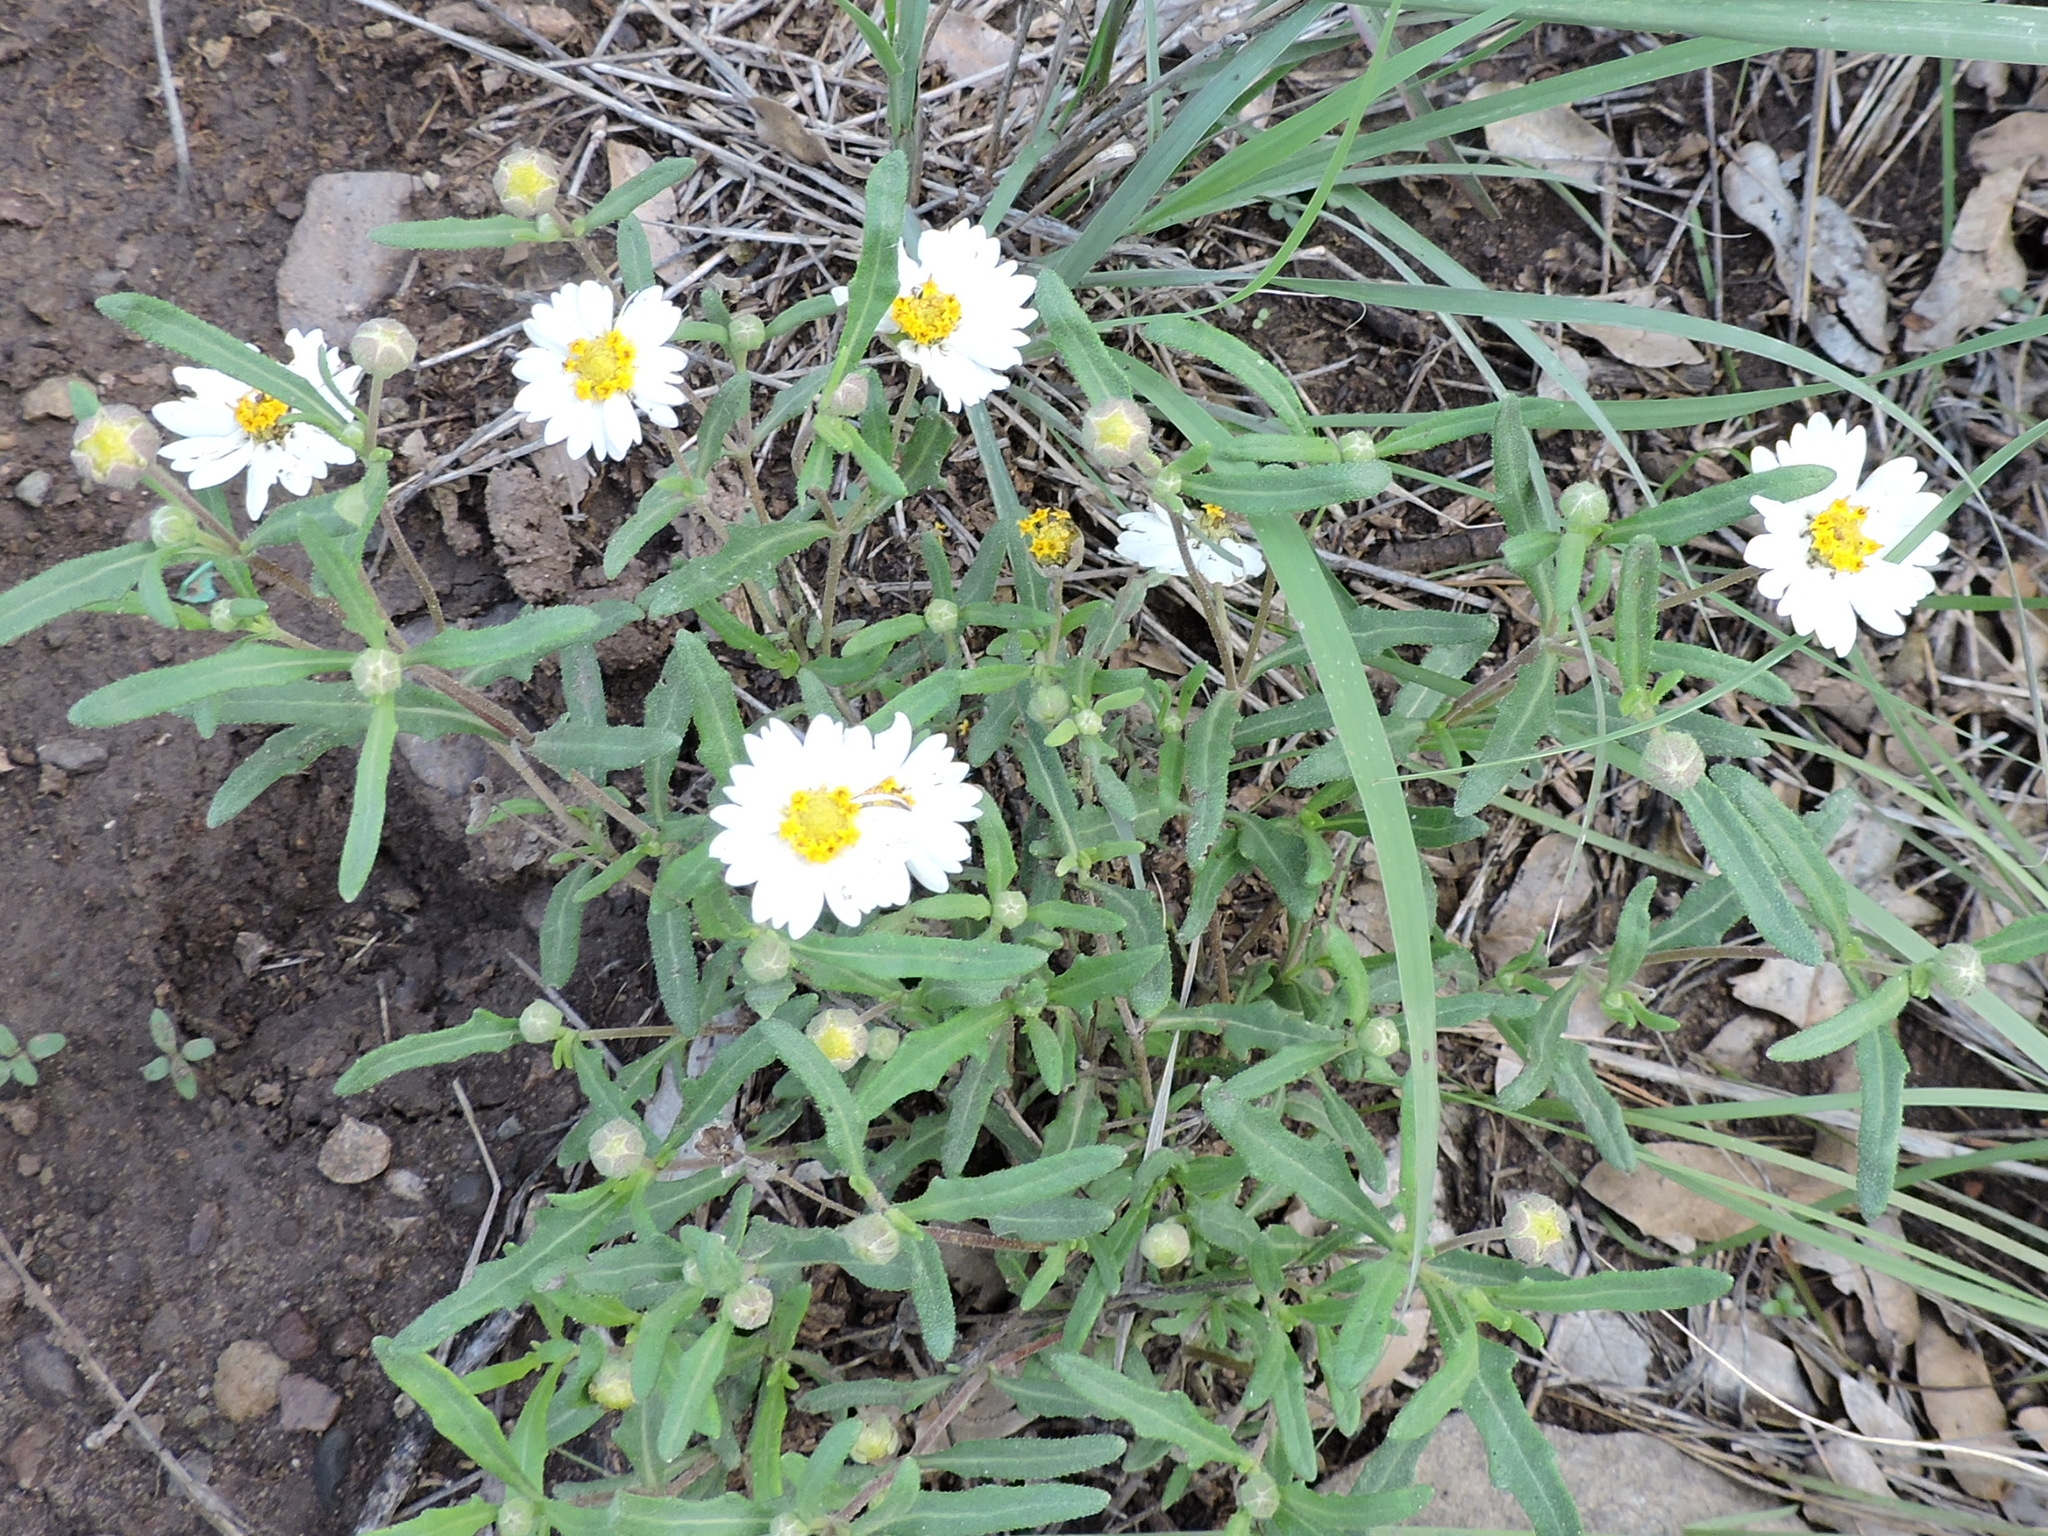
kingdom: Plantae
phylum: Tracheophyta
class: Magnoliopsida
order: Asterales
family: Asteraceae
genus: Melampodium
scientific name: Melampodium leucanthum
